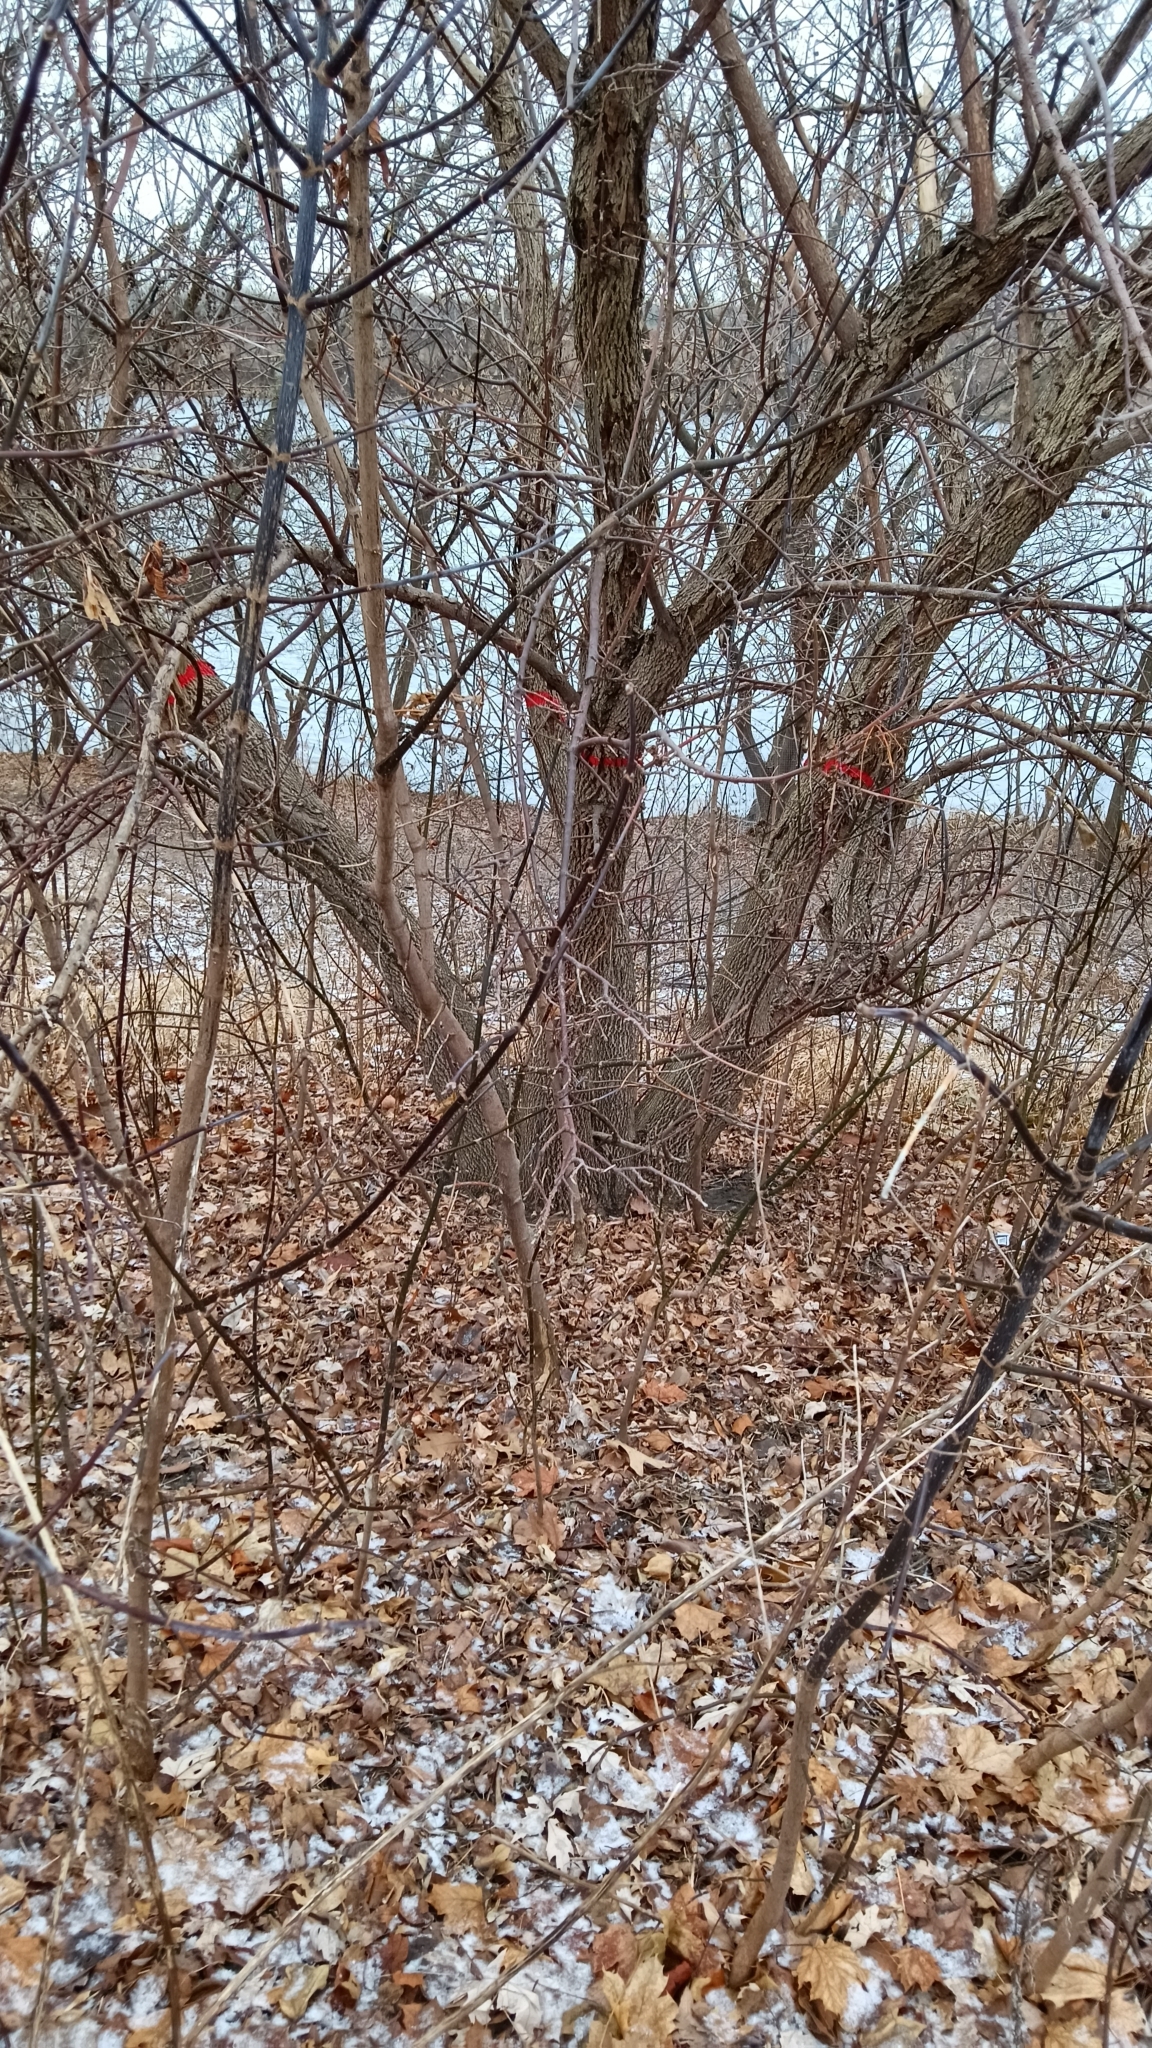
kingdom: Plantae
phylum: Tracheophyta
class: Magnoliopsida
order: Lamiales
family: Oleaceae
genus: Fraxinus
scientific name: Fraxinus pennsylvanica
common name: Green ash
